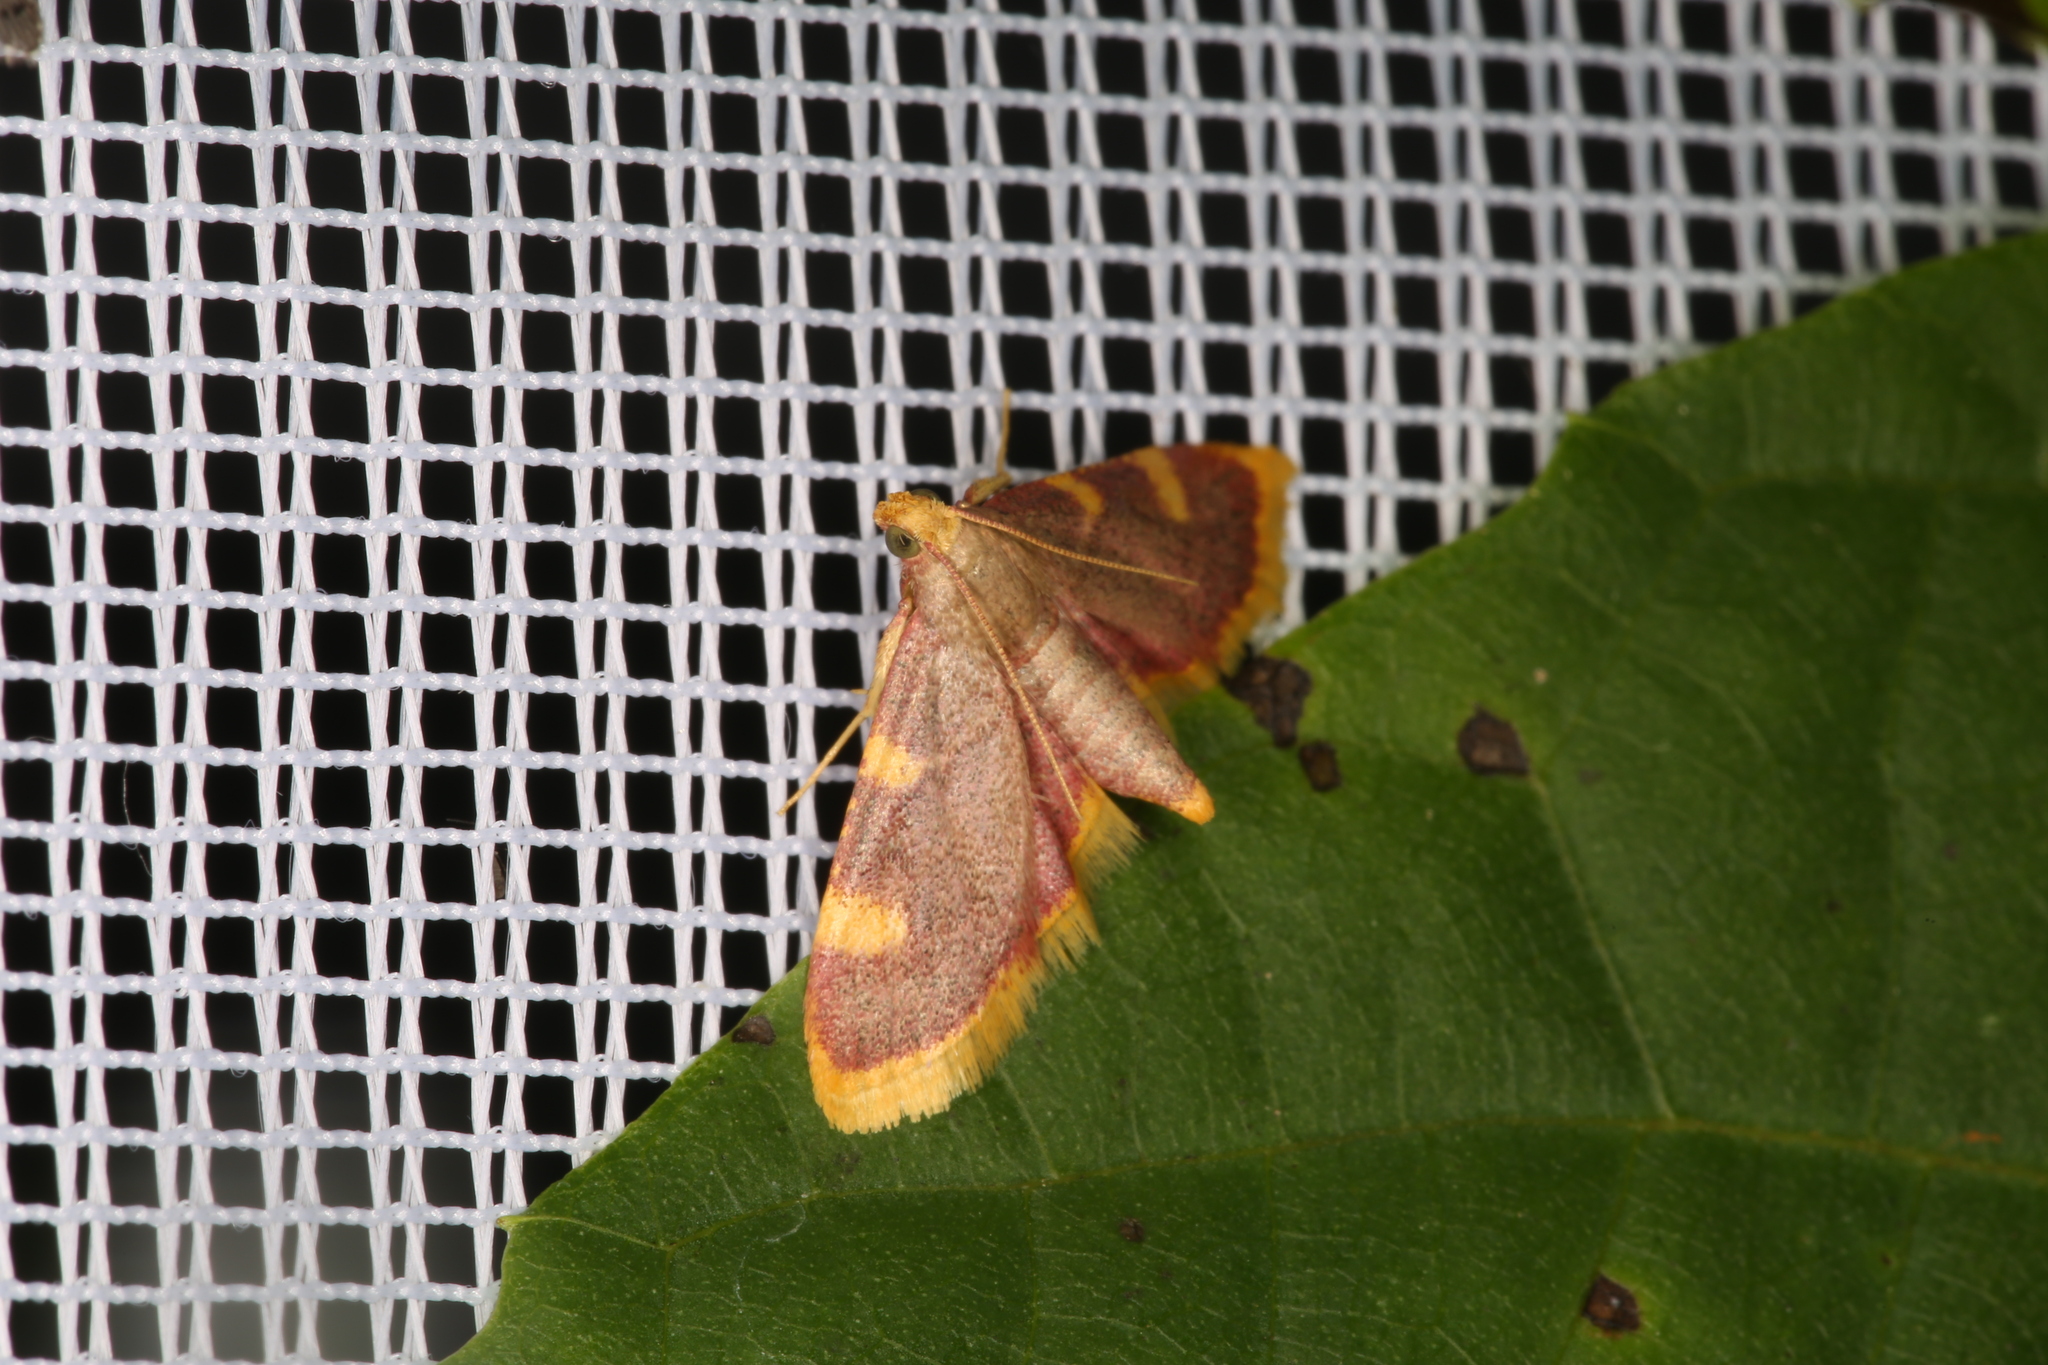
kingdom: Animalia
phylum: Arthropoda
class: Insecta
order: Lepidoptera
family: Pyralidae
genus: Hypsopygia
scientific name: Hypsopygia costalis
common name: Gold triangle
